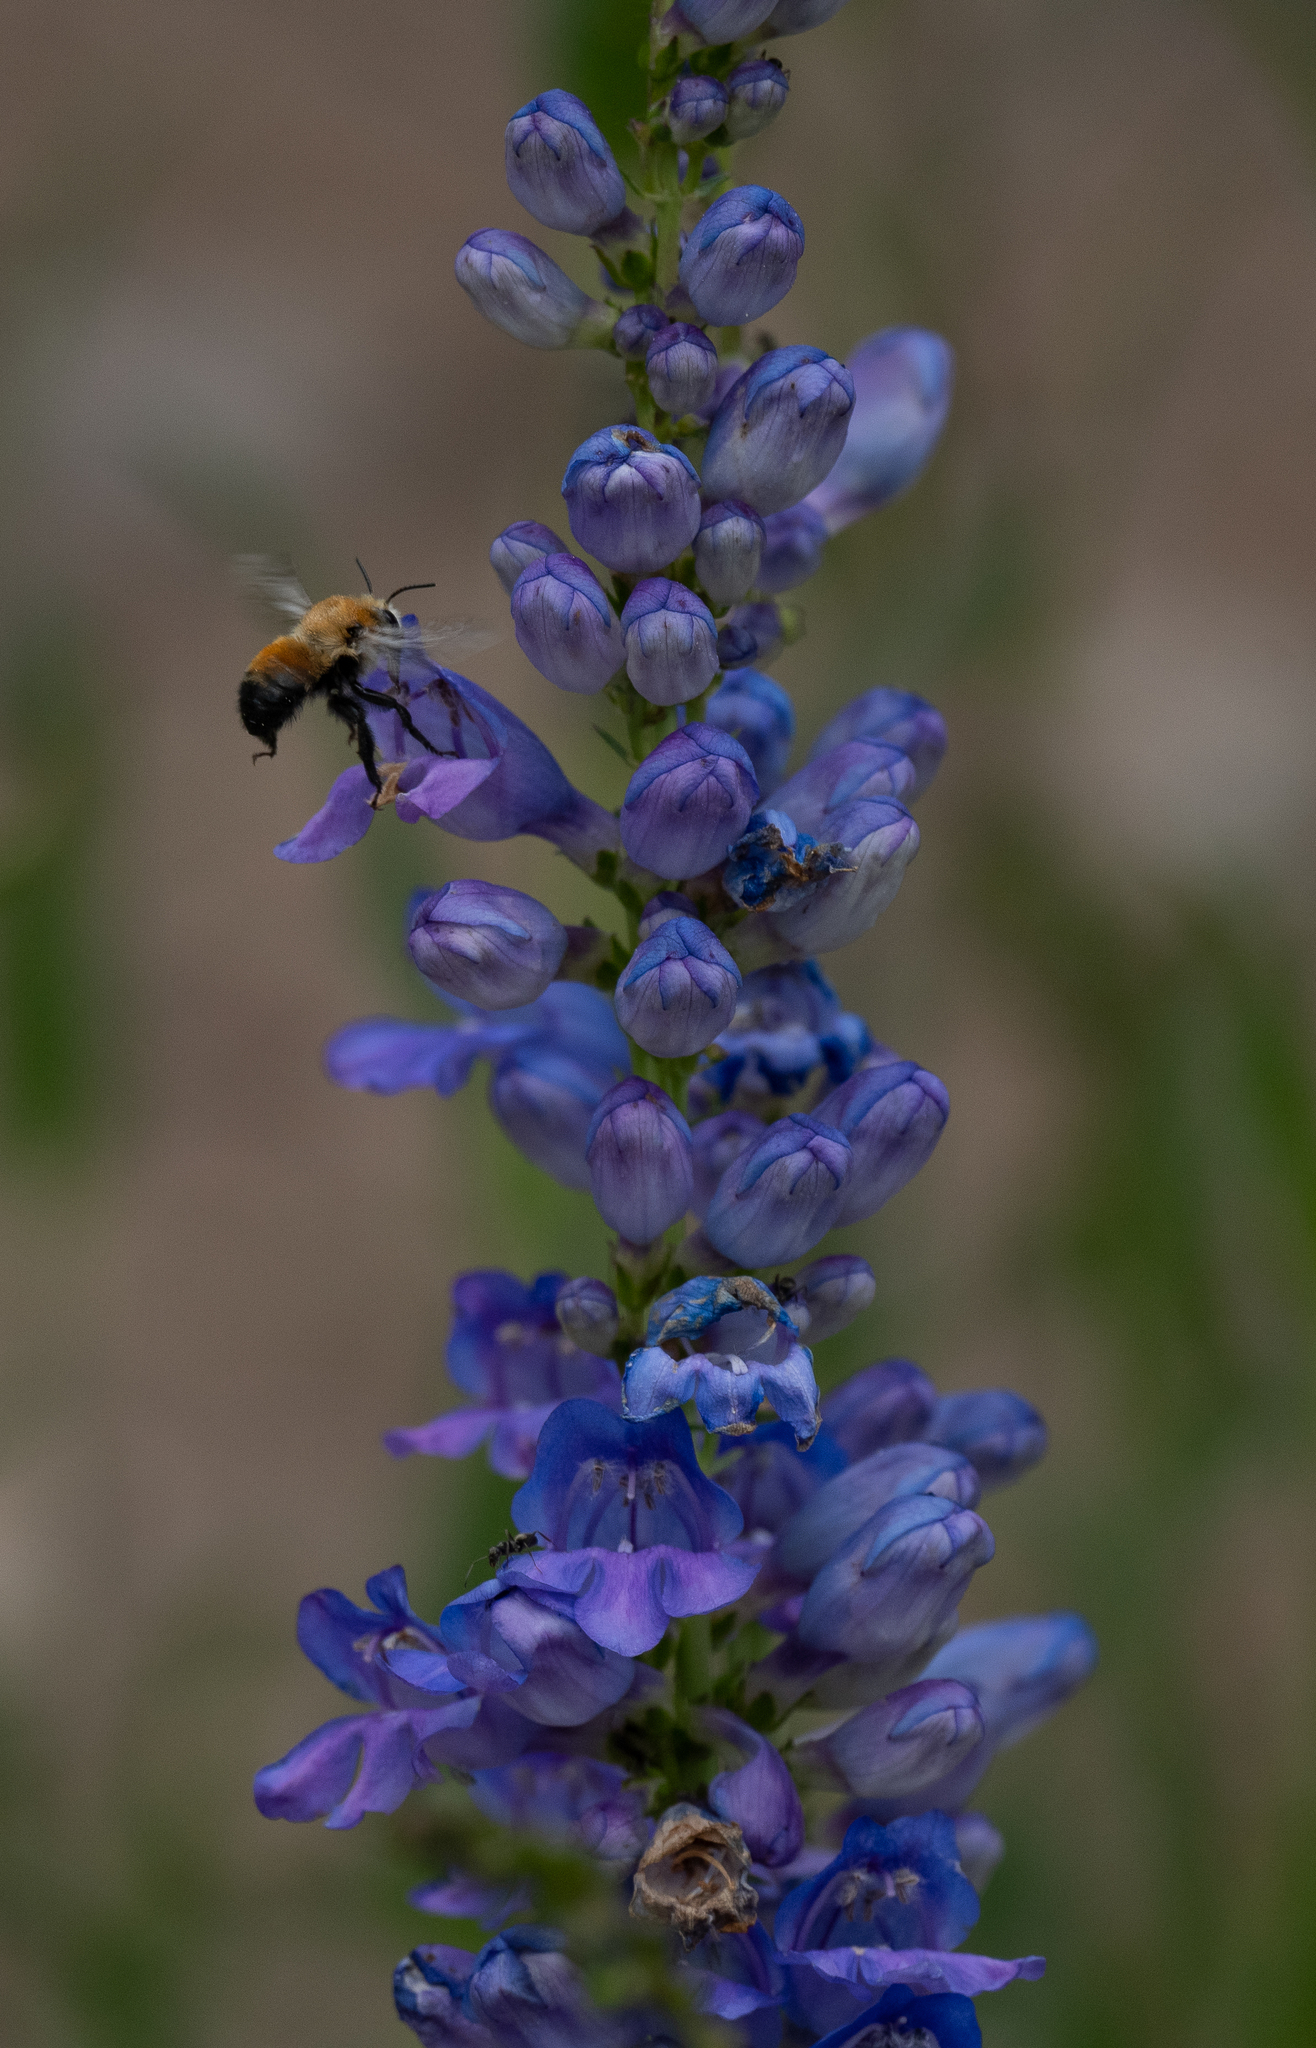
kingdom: Animalia
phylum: Arthropoda
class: Insecta
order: Hymenoptera
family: Apidae
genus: Anthophora
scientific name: Anthophora bomboides
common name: Bumble-bee-mimic digger bee
